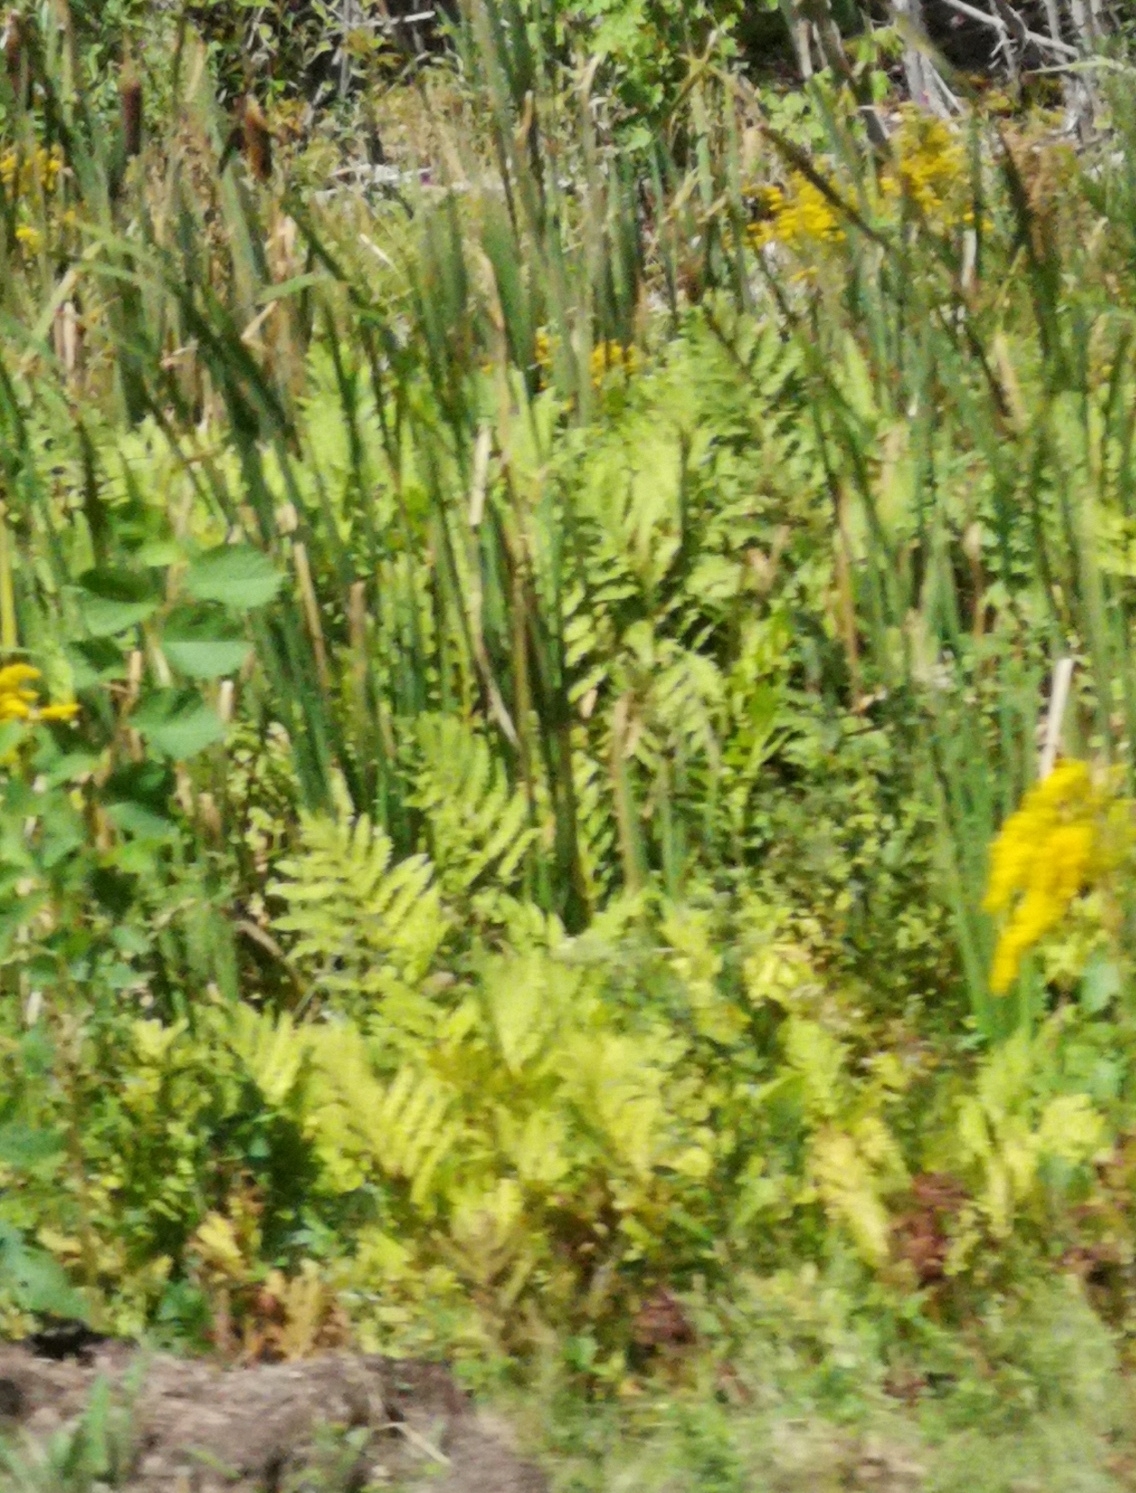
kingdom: Plantae
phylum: Tracheophyta
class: Polypodiopsida
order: Polypodiales
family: Onocleaceae
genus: Onoclea
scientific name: Onoclea sensibilis
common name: Sensitive fern
